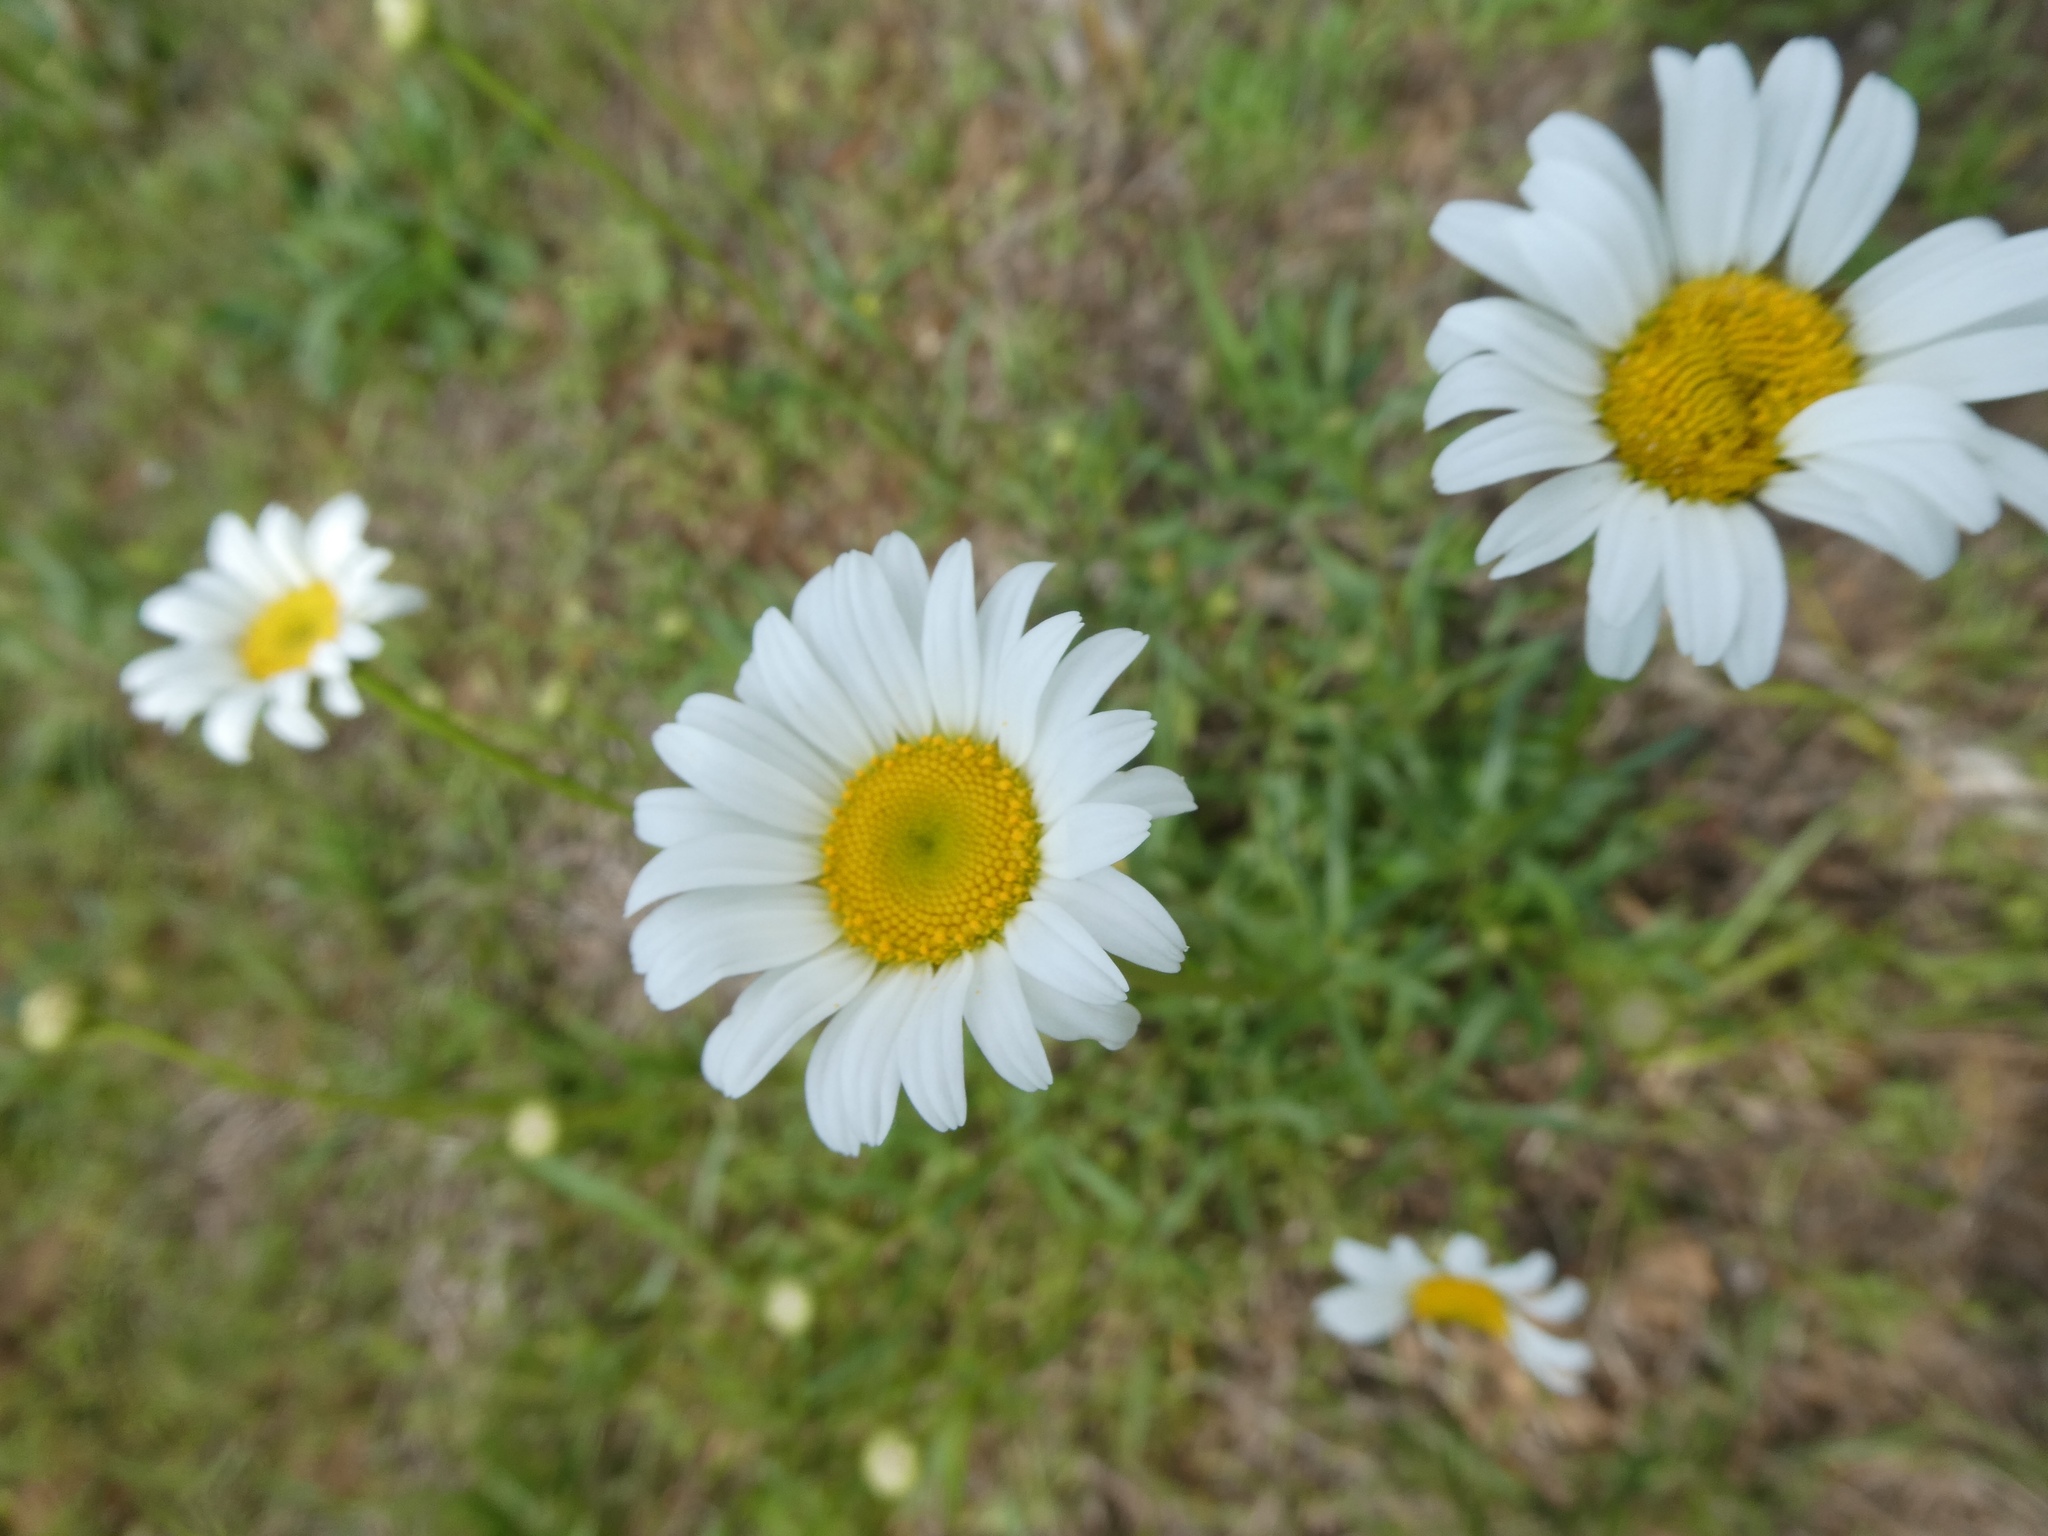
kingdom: Plantae
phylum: Tracheophyta
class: Magnoliopsida
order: Asterales
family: Asteraceae
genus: Leucanthemum
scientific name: Leucanthemum vulgare
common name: Oxeye daisy
